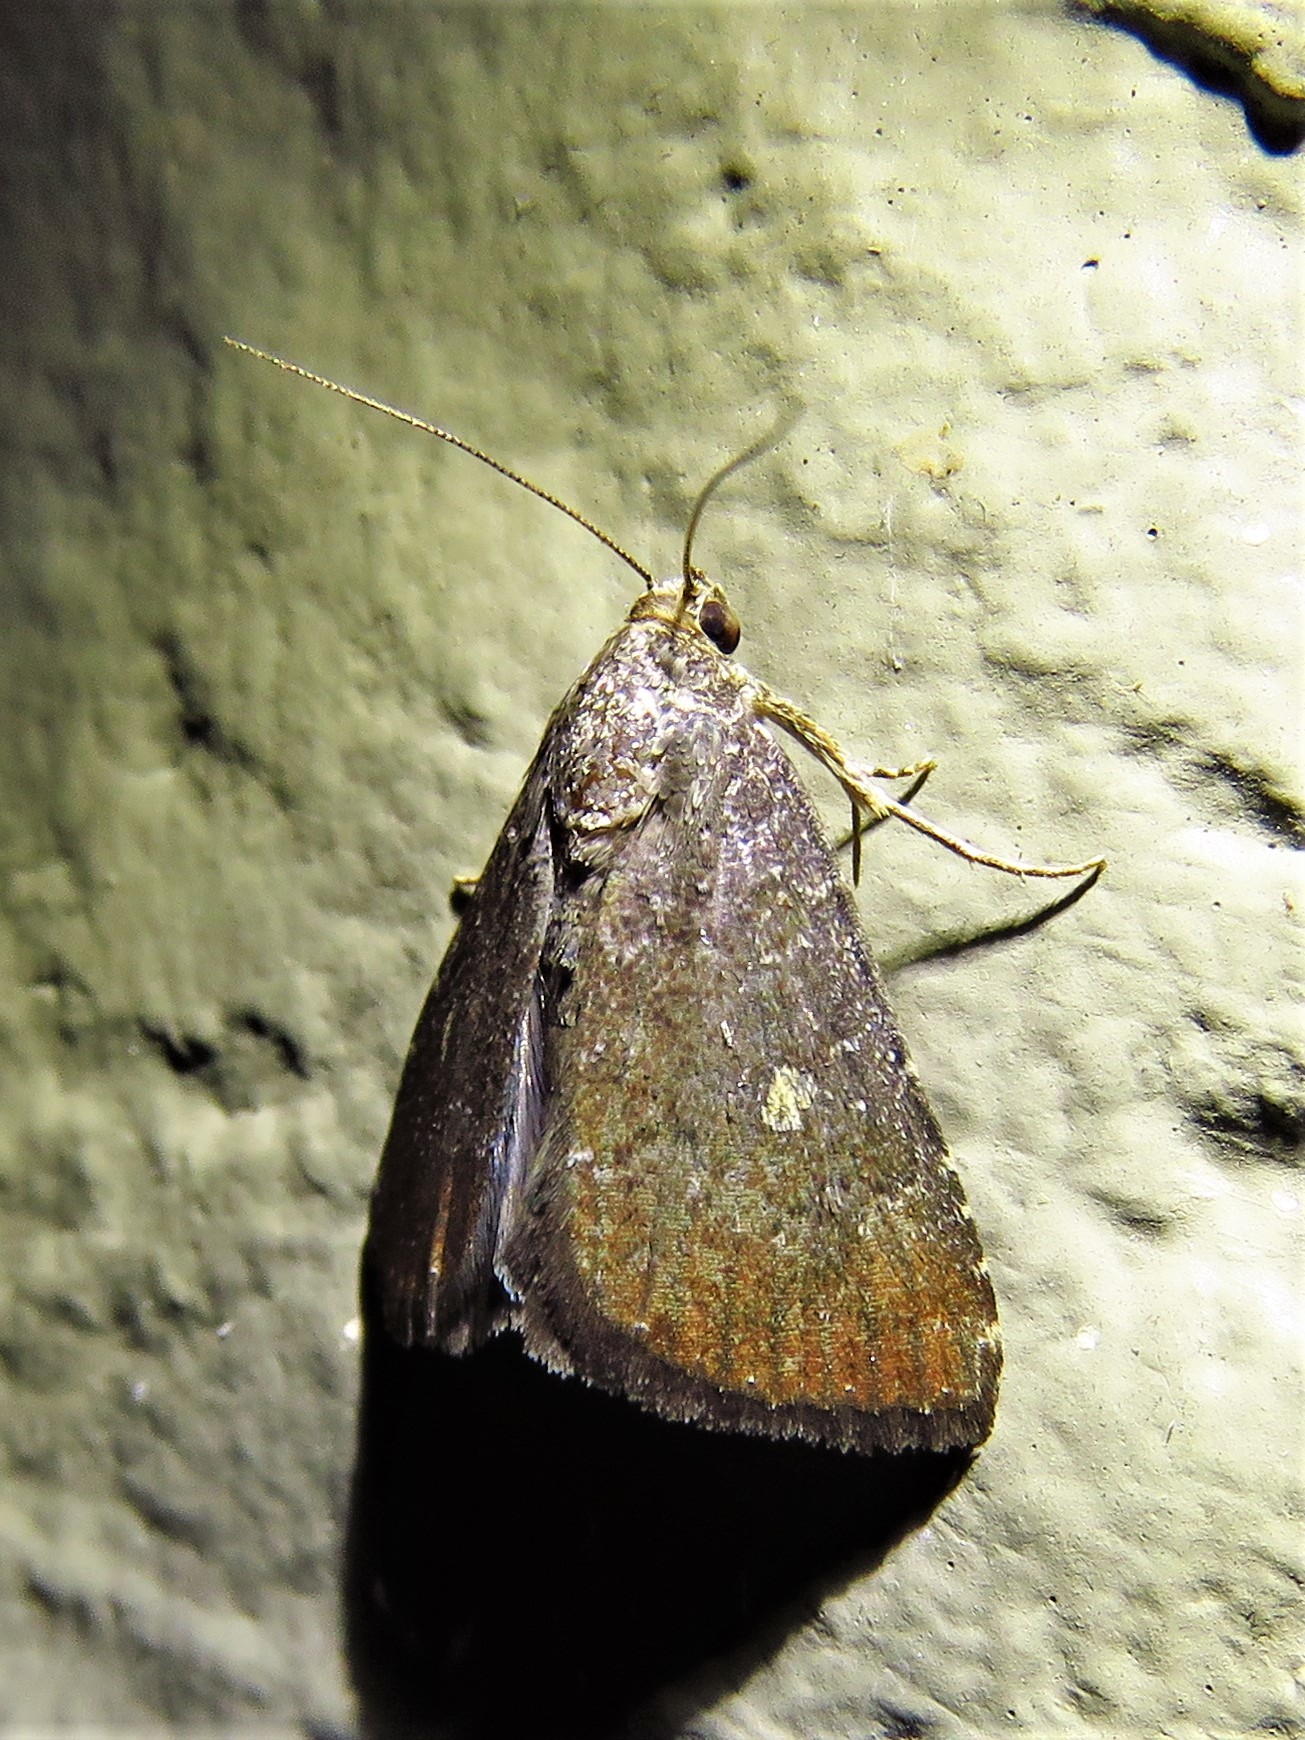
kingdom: Animalia
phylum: Arthropoda
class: Insecta
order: Lepidoptera
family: Noctuidae
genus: Amyna
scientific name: Amyna stricta
